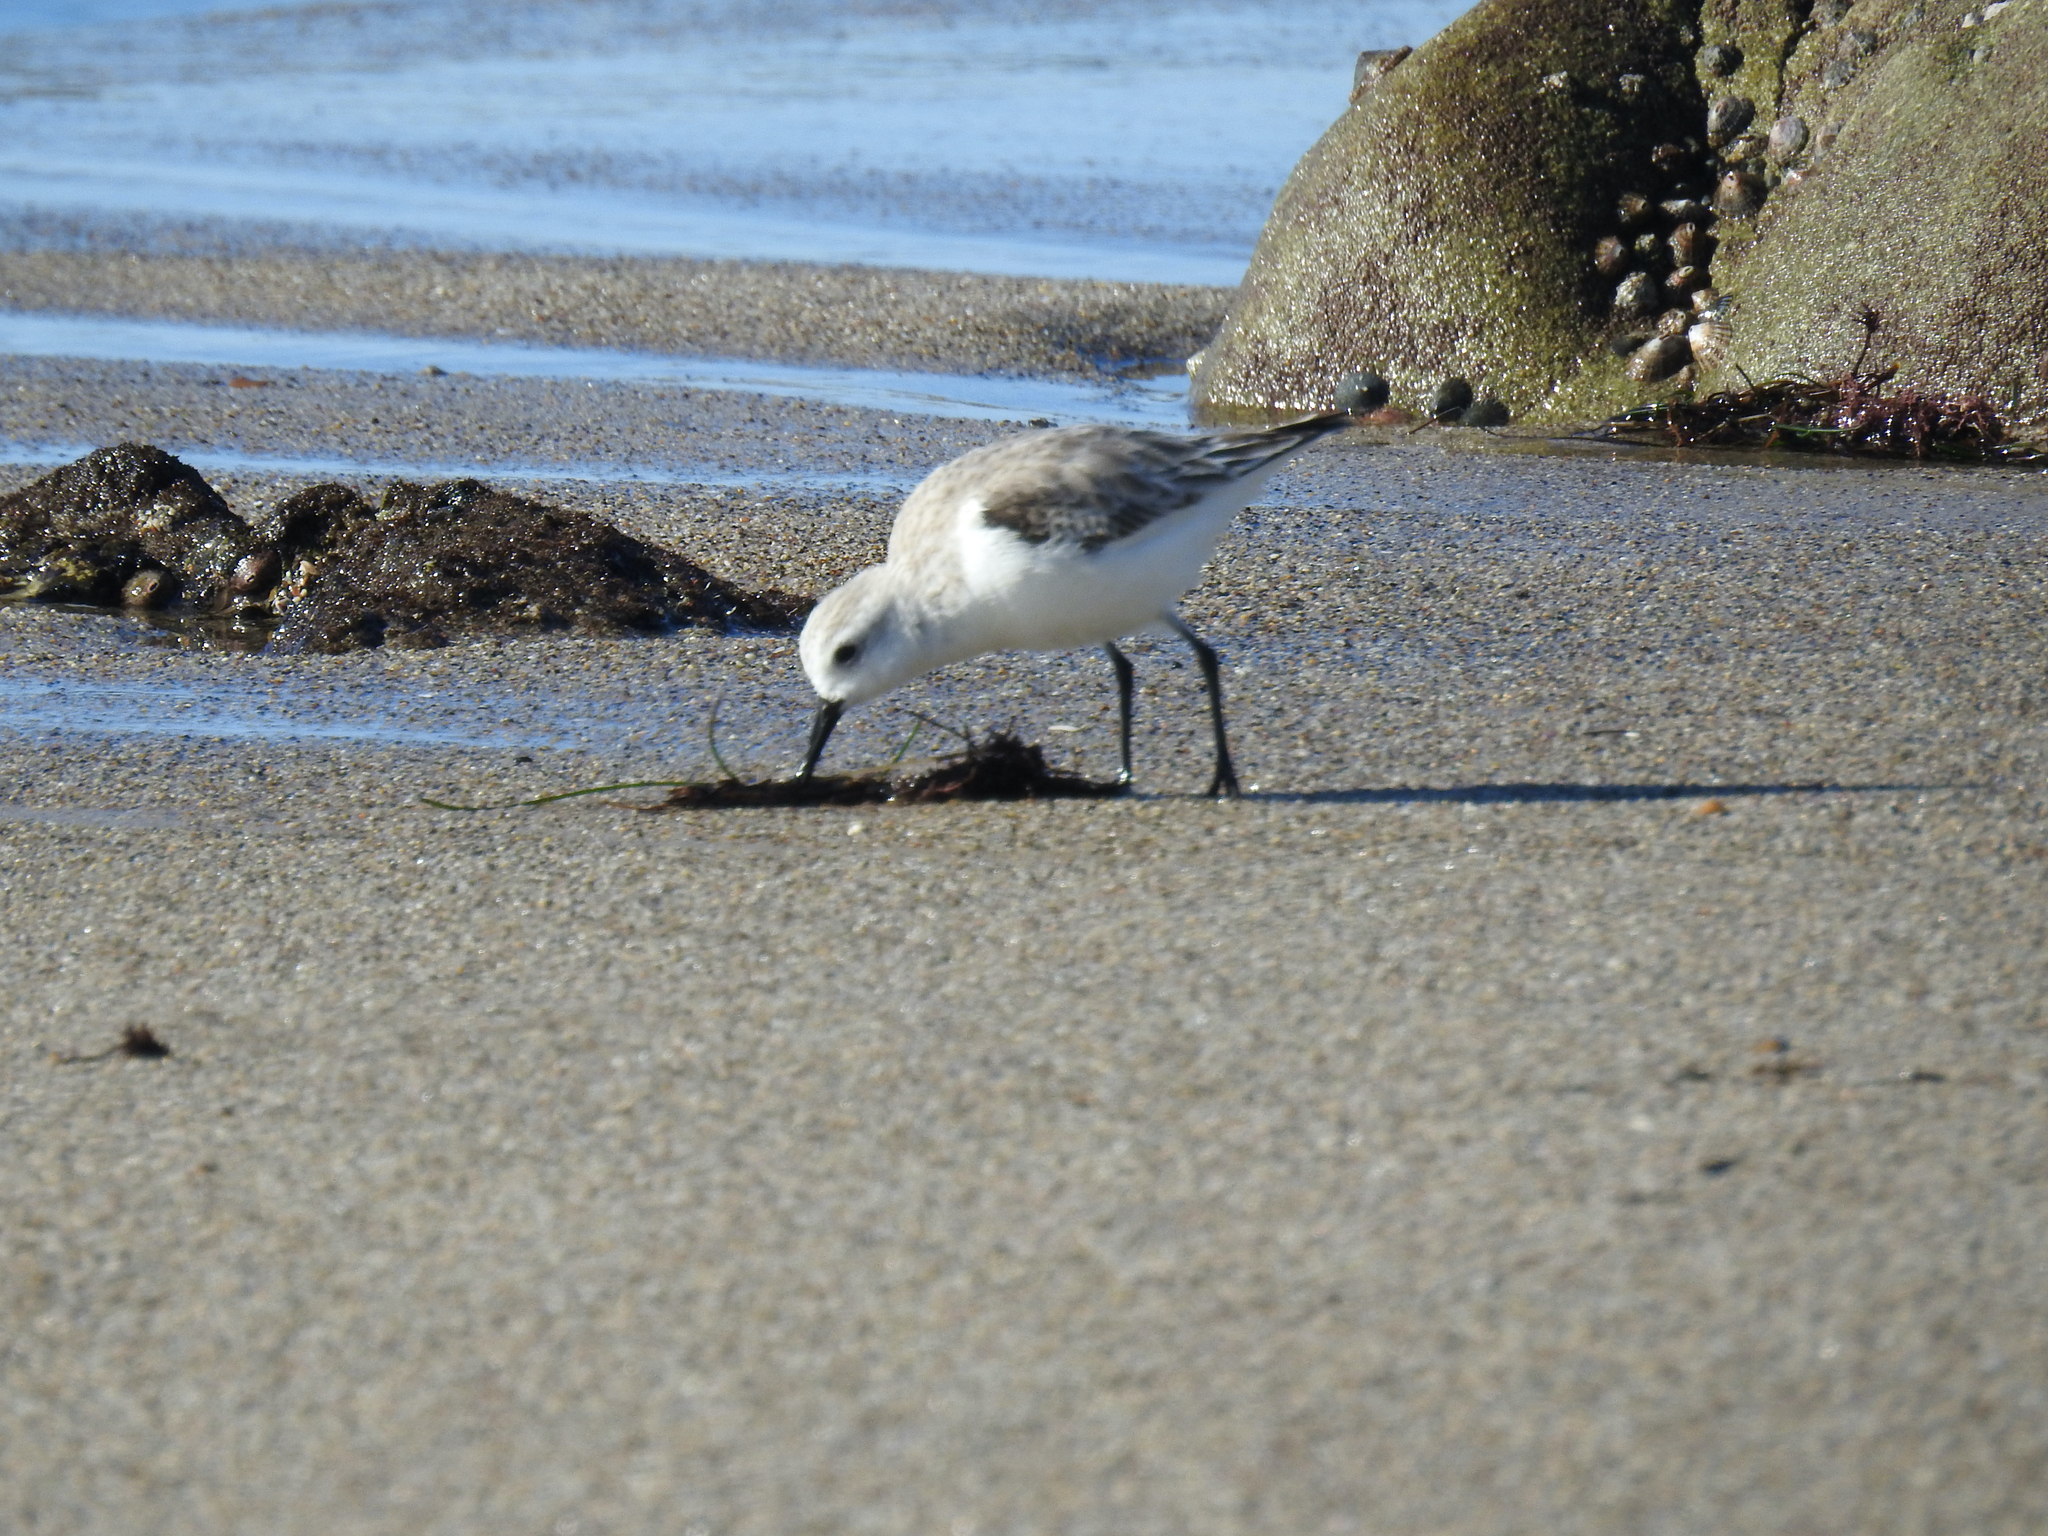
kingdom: Animalia
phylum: Chordata
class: Aves
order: Charadriiformes
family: Scolopacidae
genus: Calidris
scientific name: Calidris alba
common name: Sanderling
